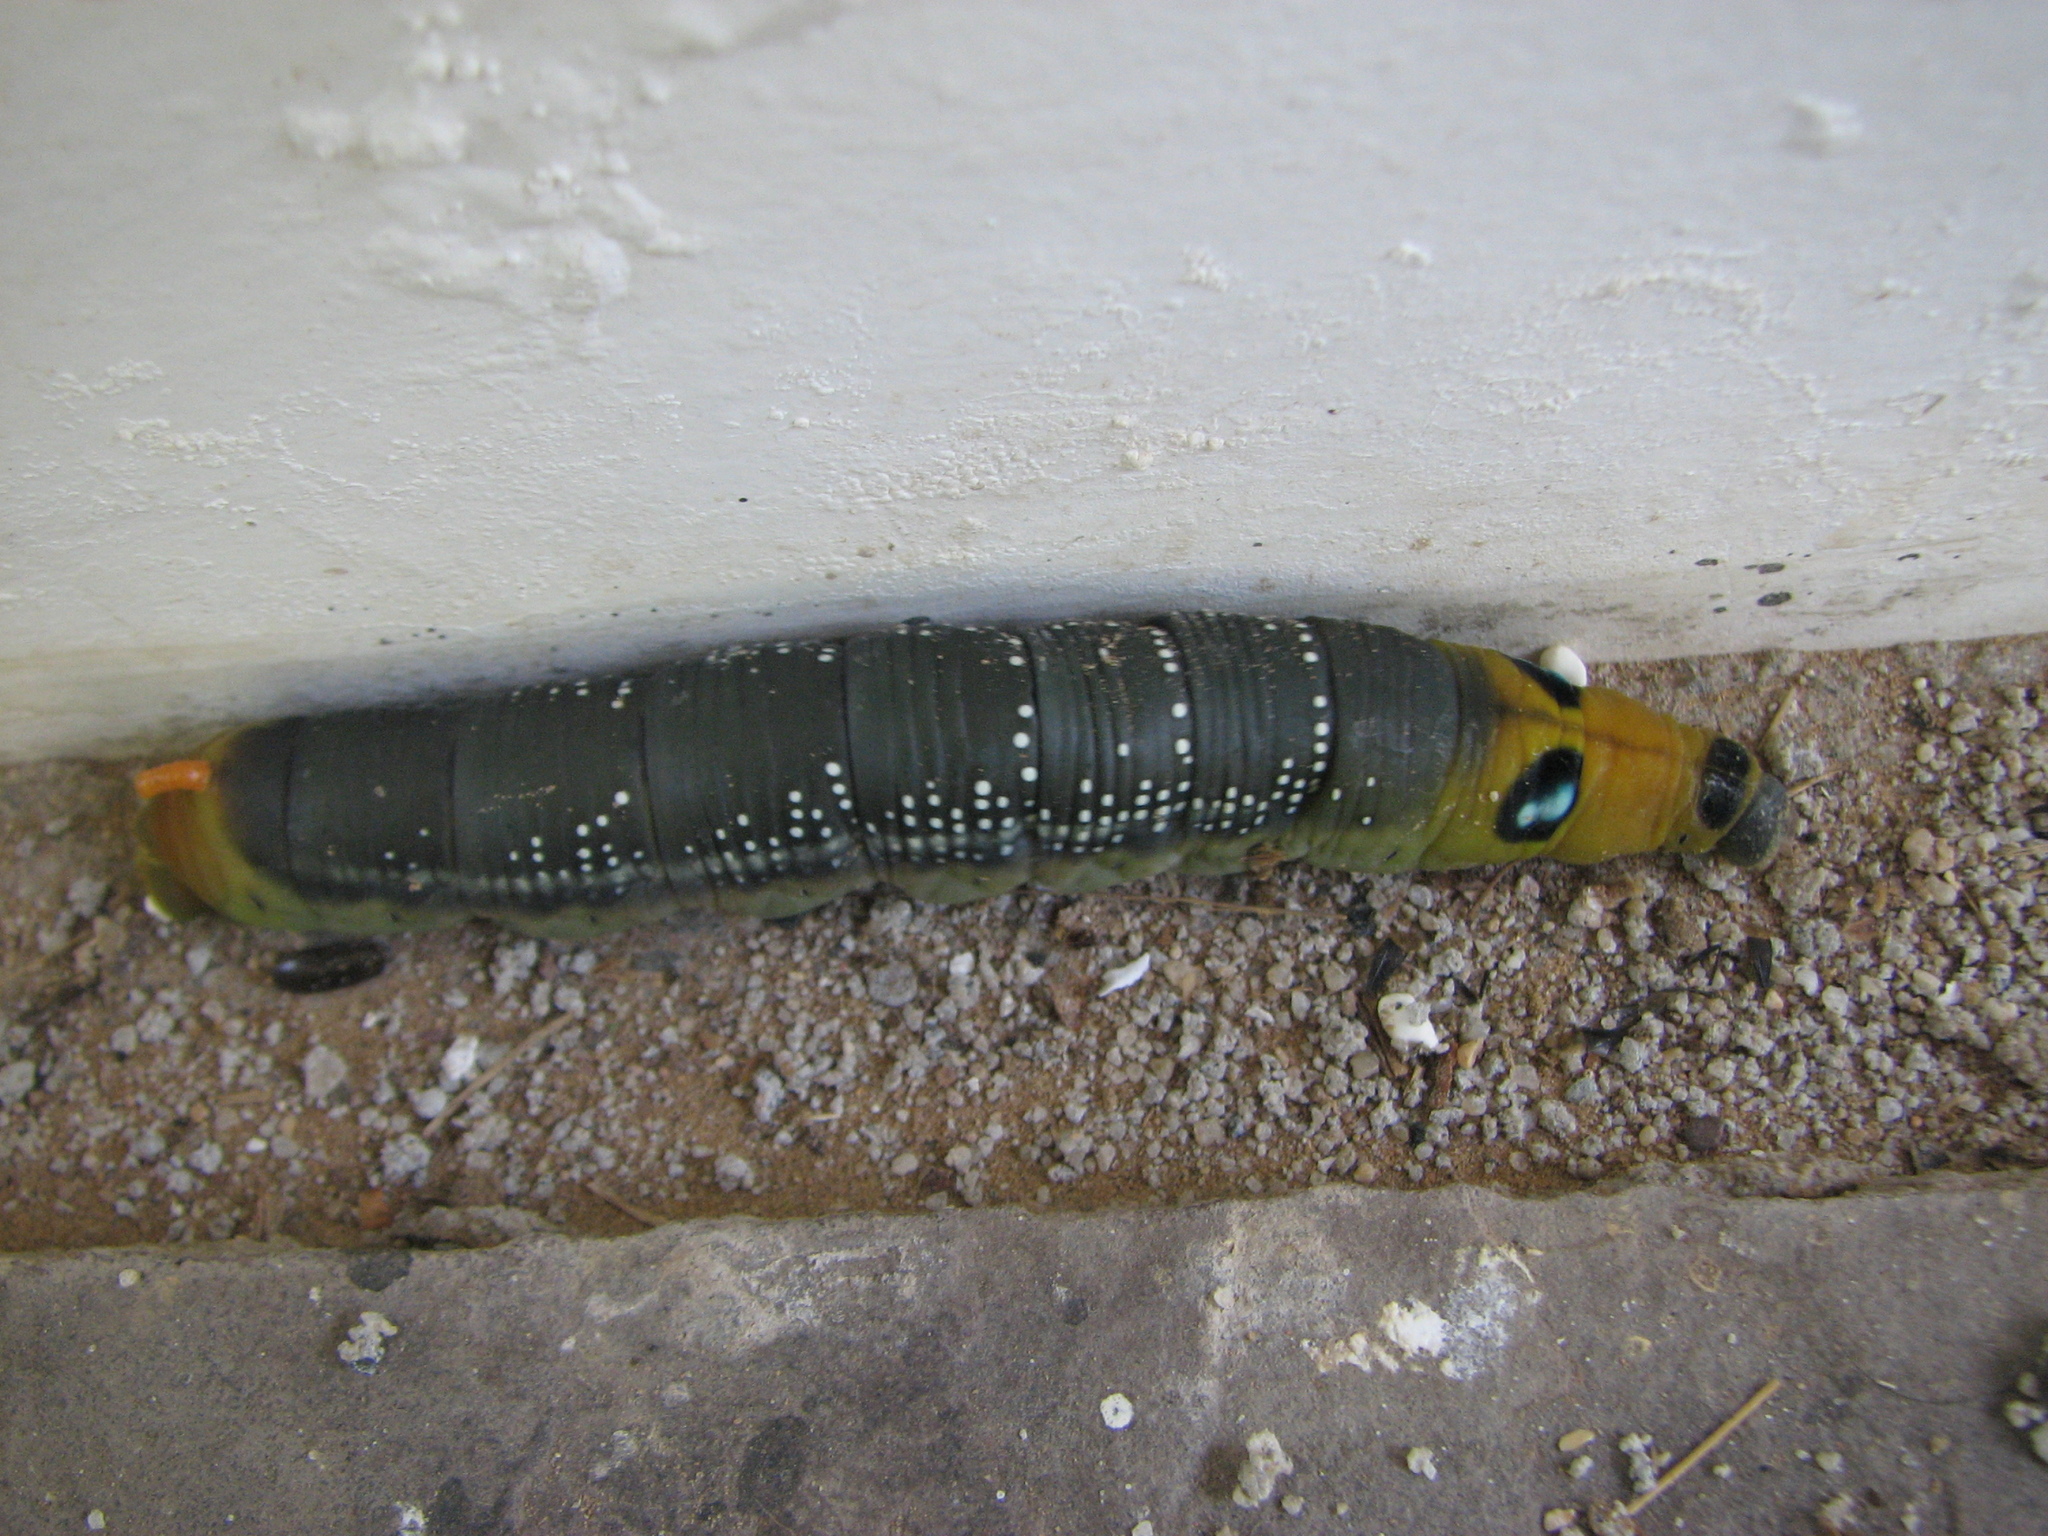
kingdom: Animalia
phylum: Arthropoda
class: Insecta
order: Lepidoptera
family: Sphingidae
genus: Daphnis
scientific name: Daphnis nerii
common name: Oleander hawk-moth
